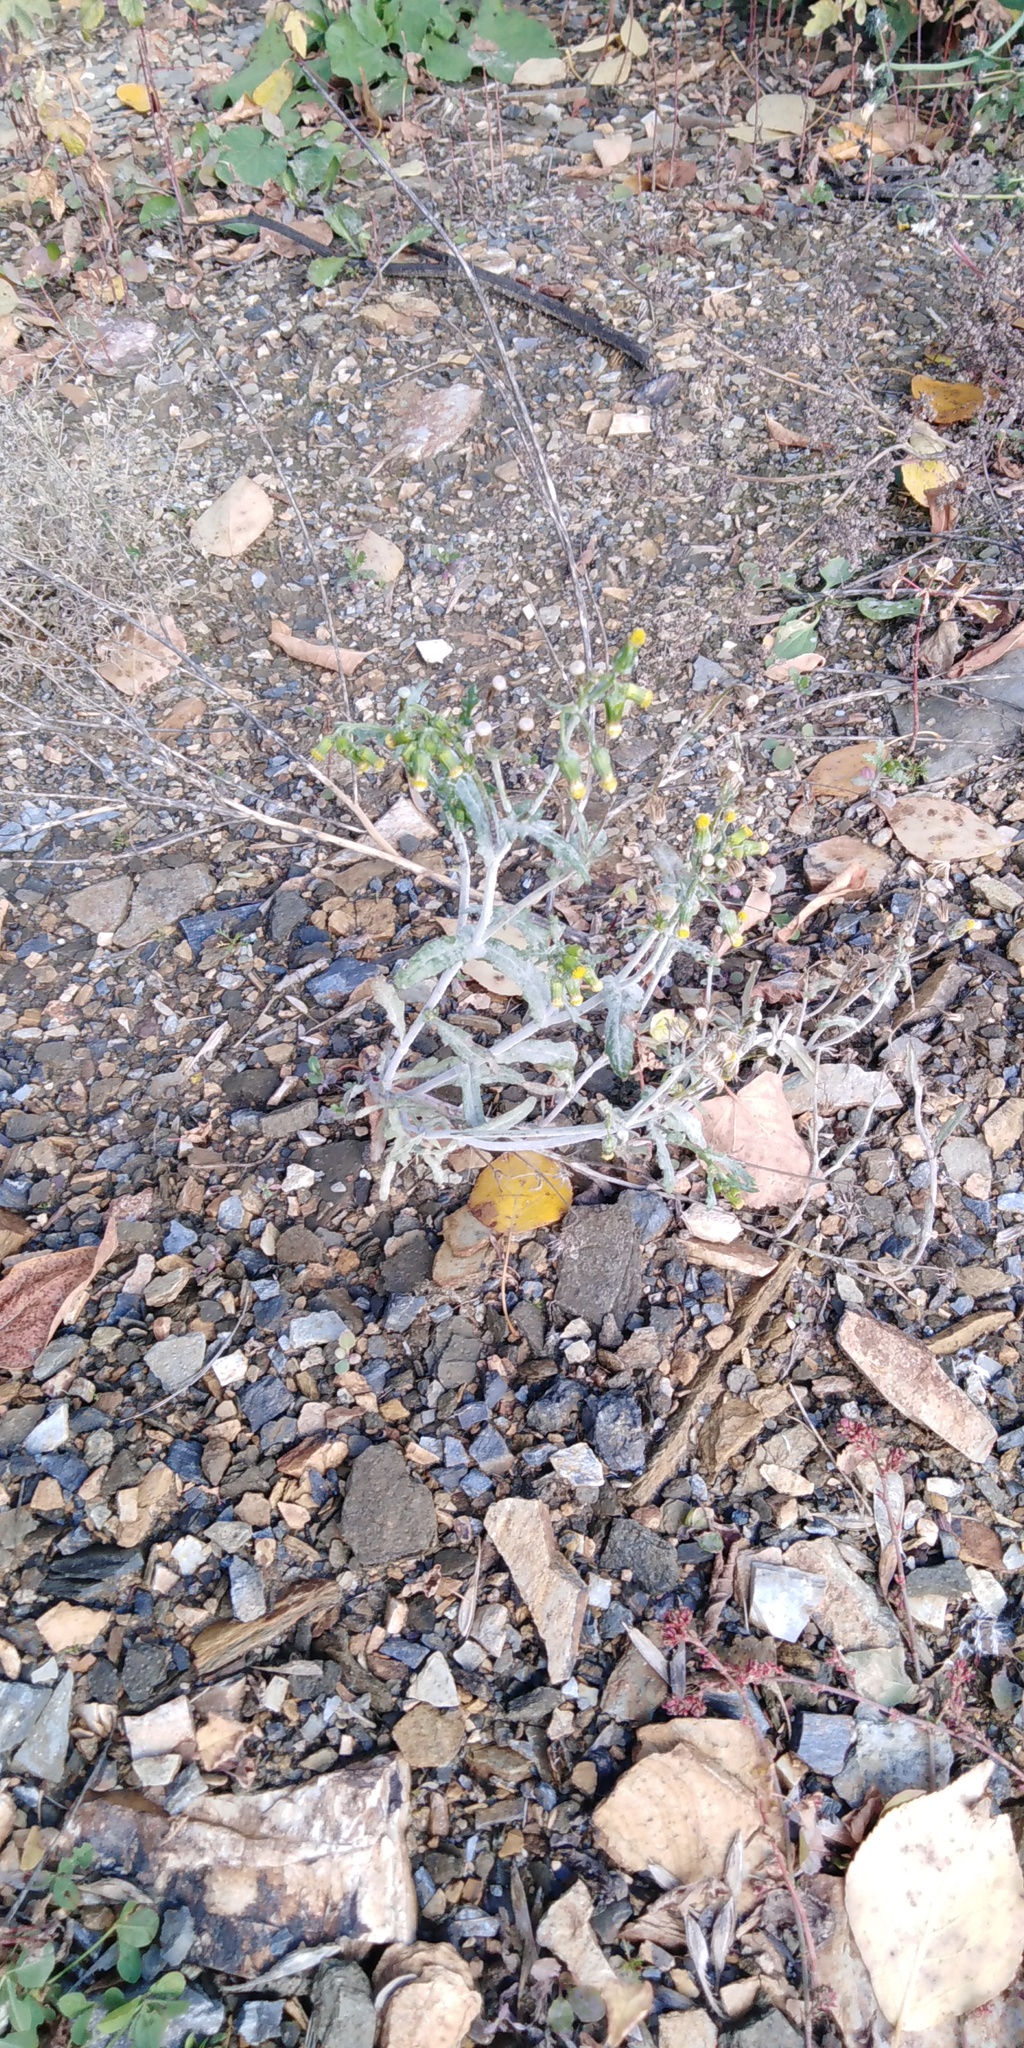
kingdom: Plantae
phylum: Tracheophyta
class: Magnoliopsida
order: Asterales
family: Asteraceae
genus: Senecio
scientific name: Senecio vulgaris
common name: Old-man-in-the-spring
